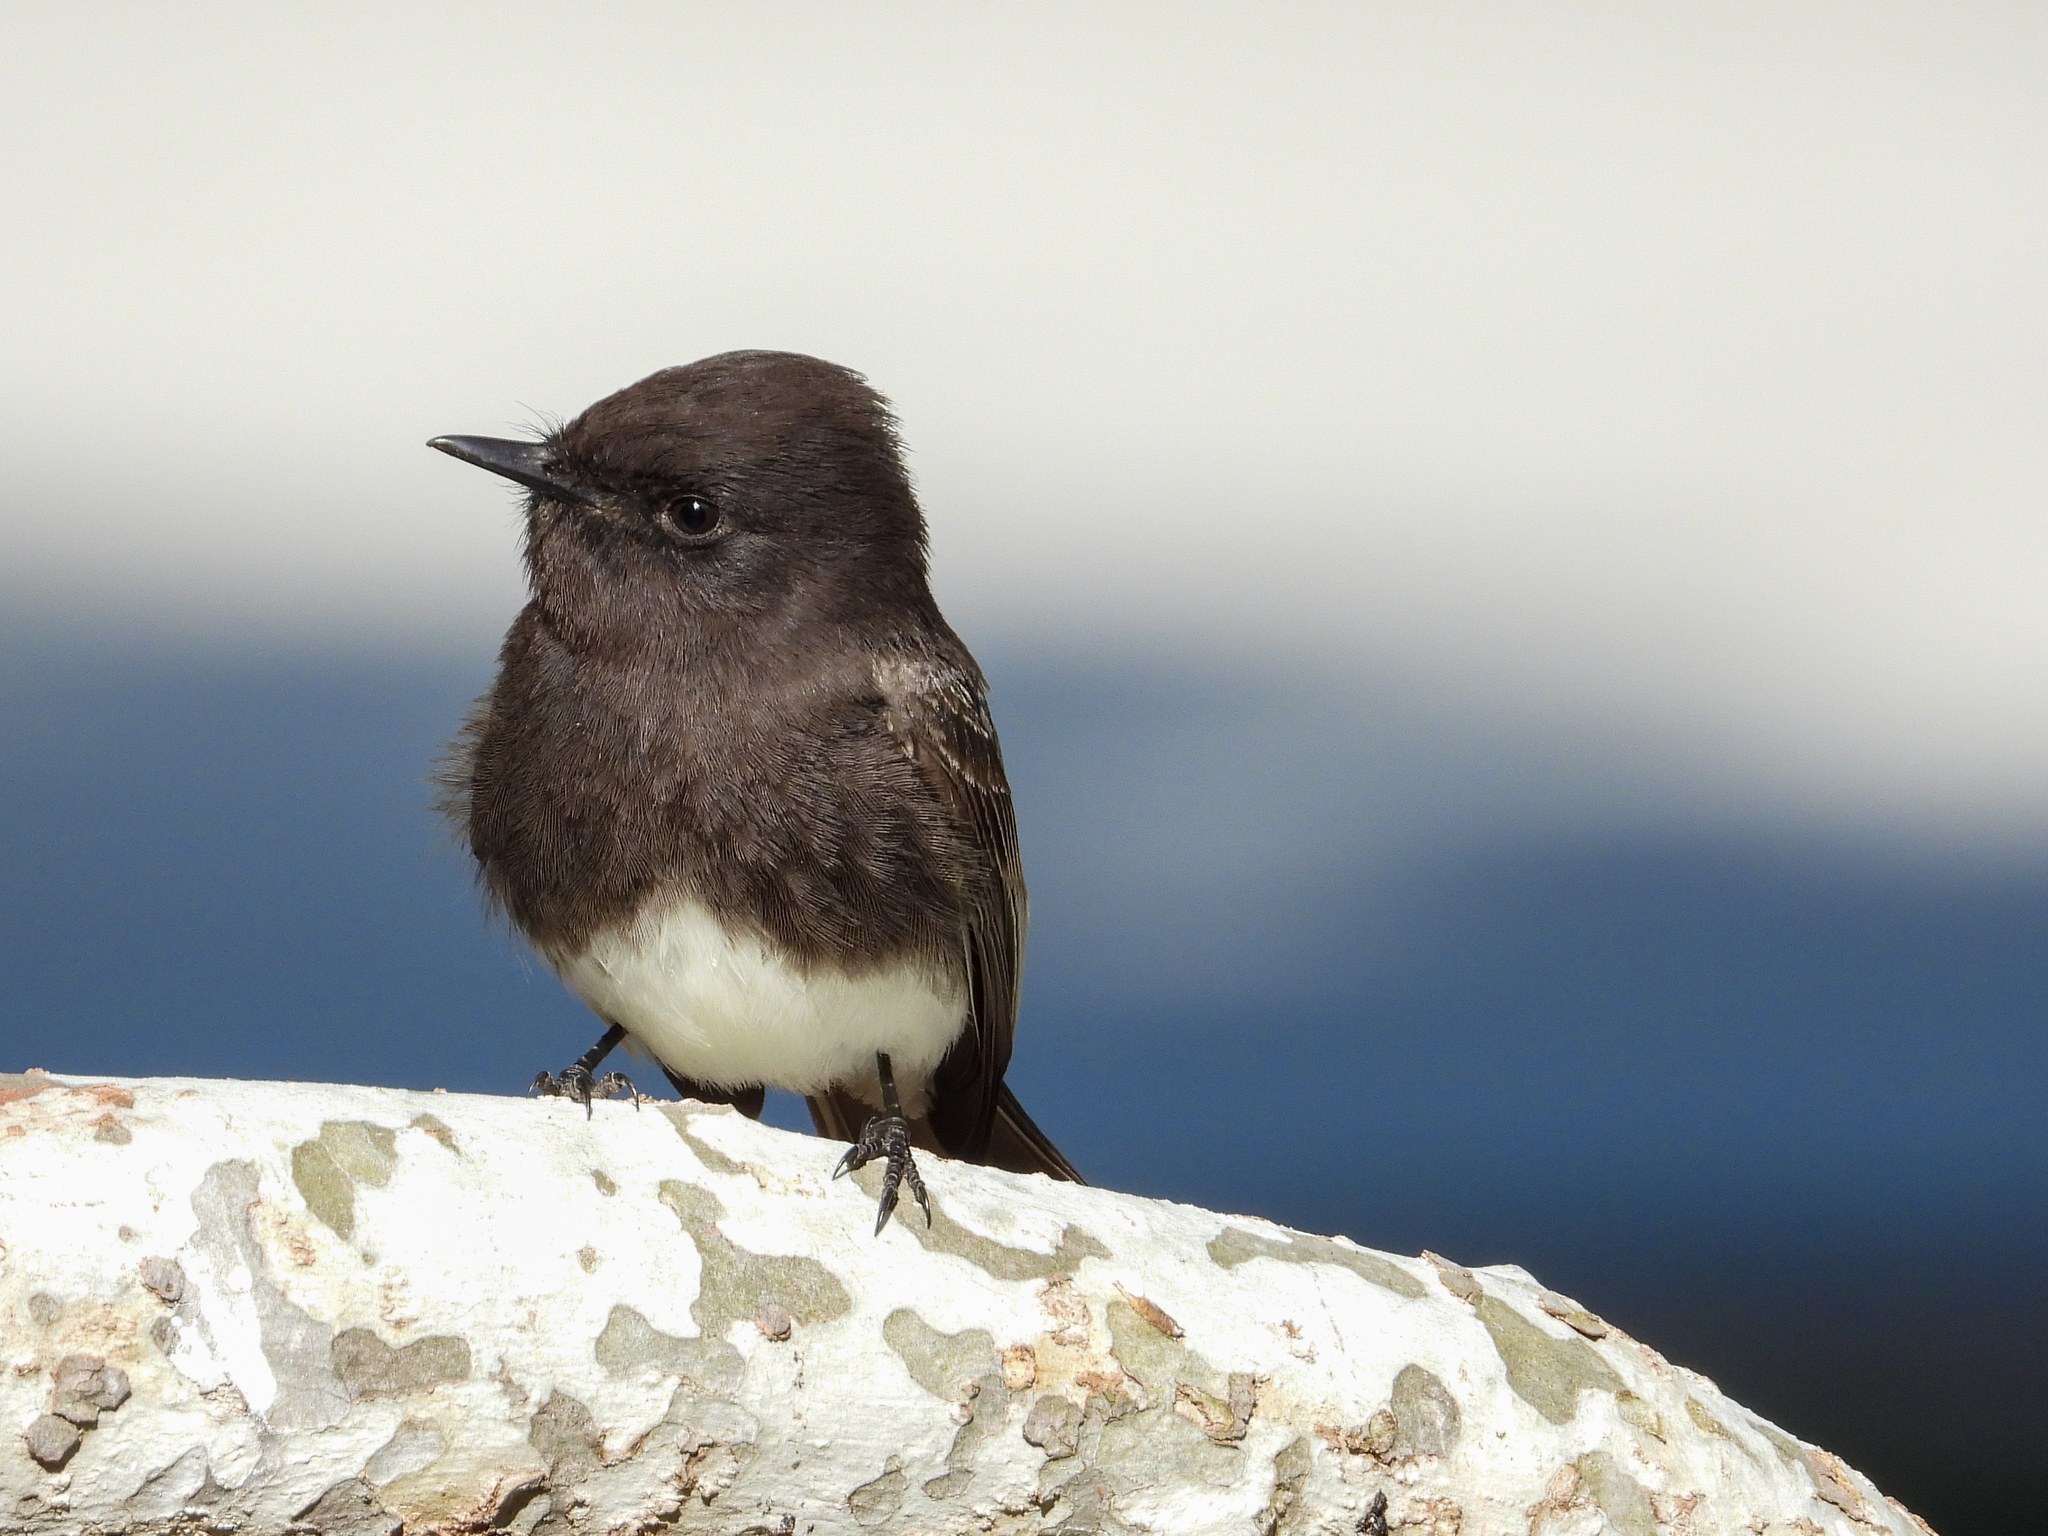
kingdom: Animalia
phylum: Chordata
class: Aves
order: Passeriformes
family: Tyrannidae
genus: Sayornis
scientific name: Sayornis nigricans
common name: Black phoebe
